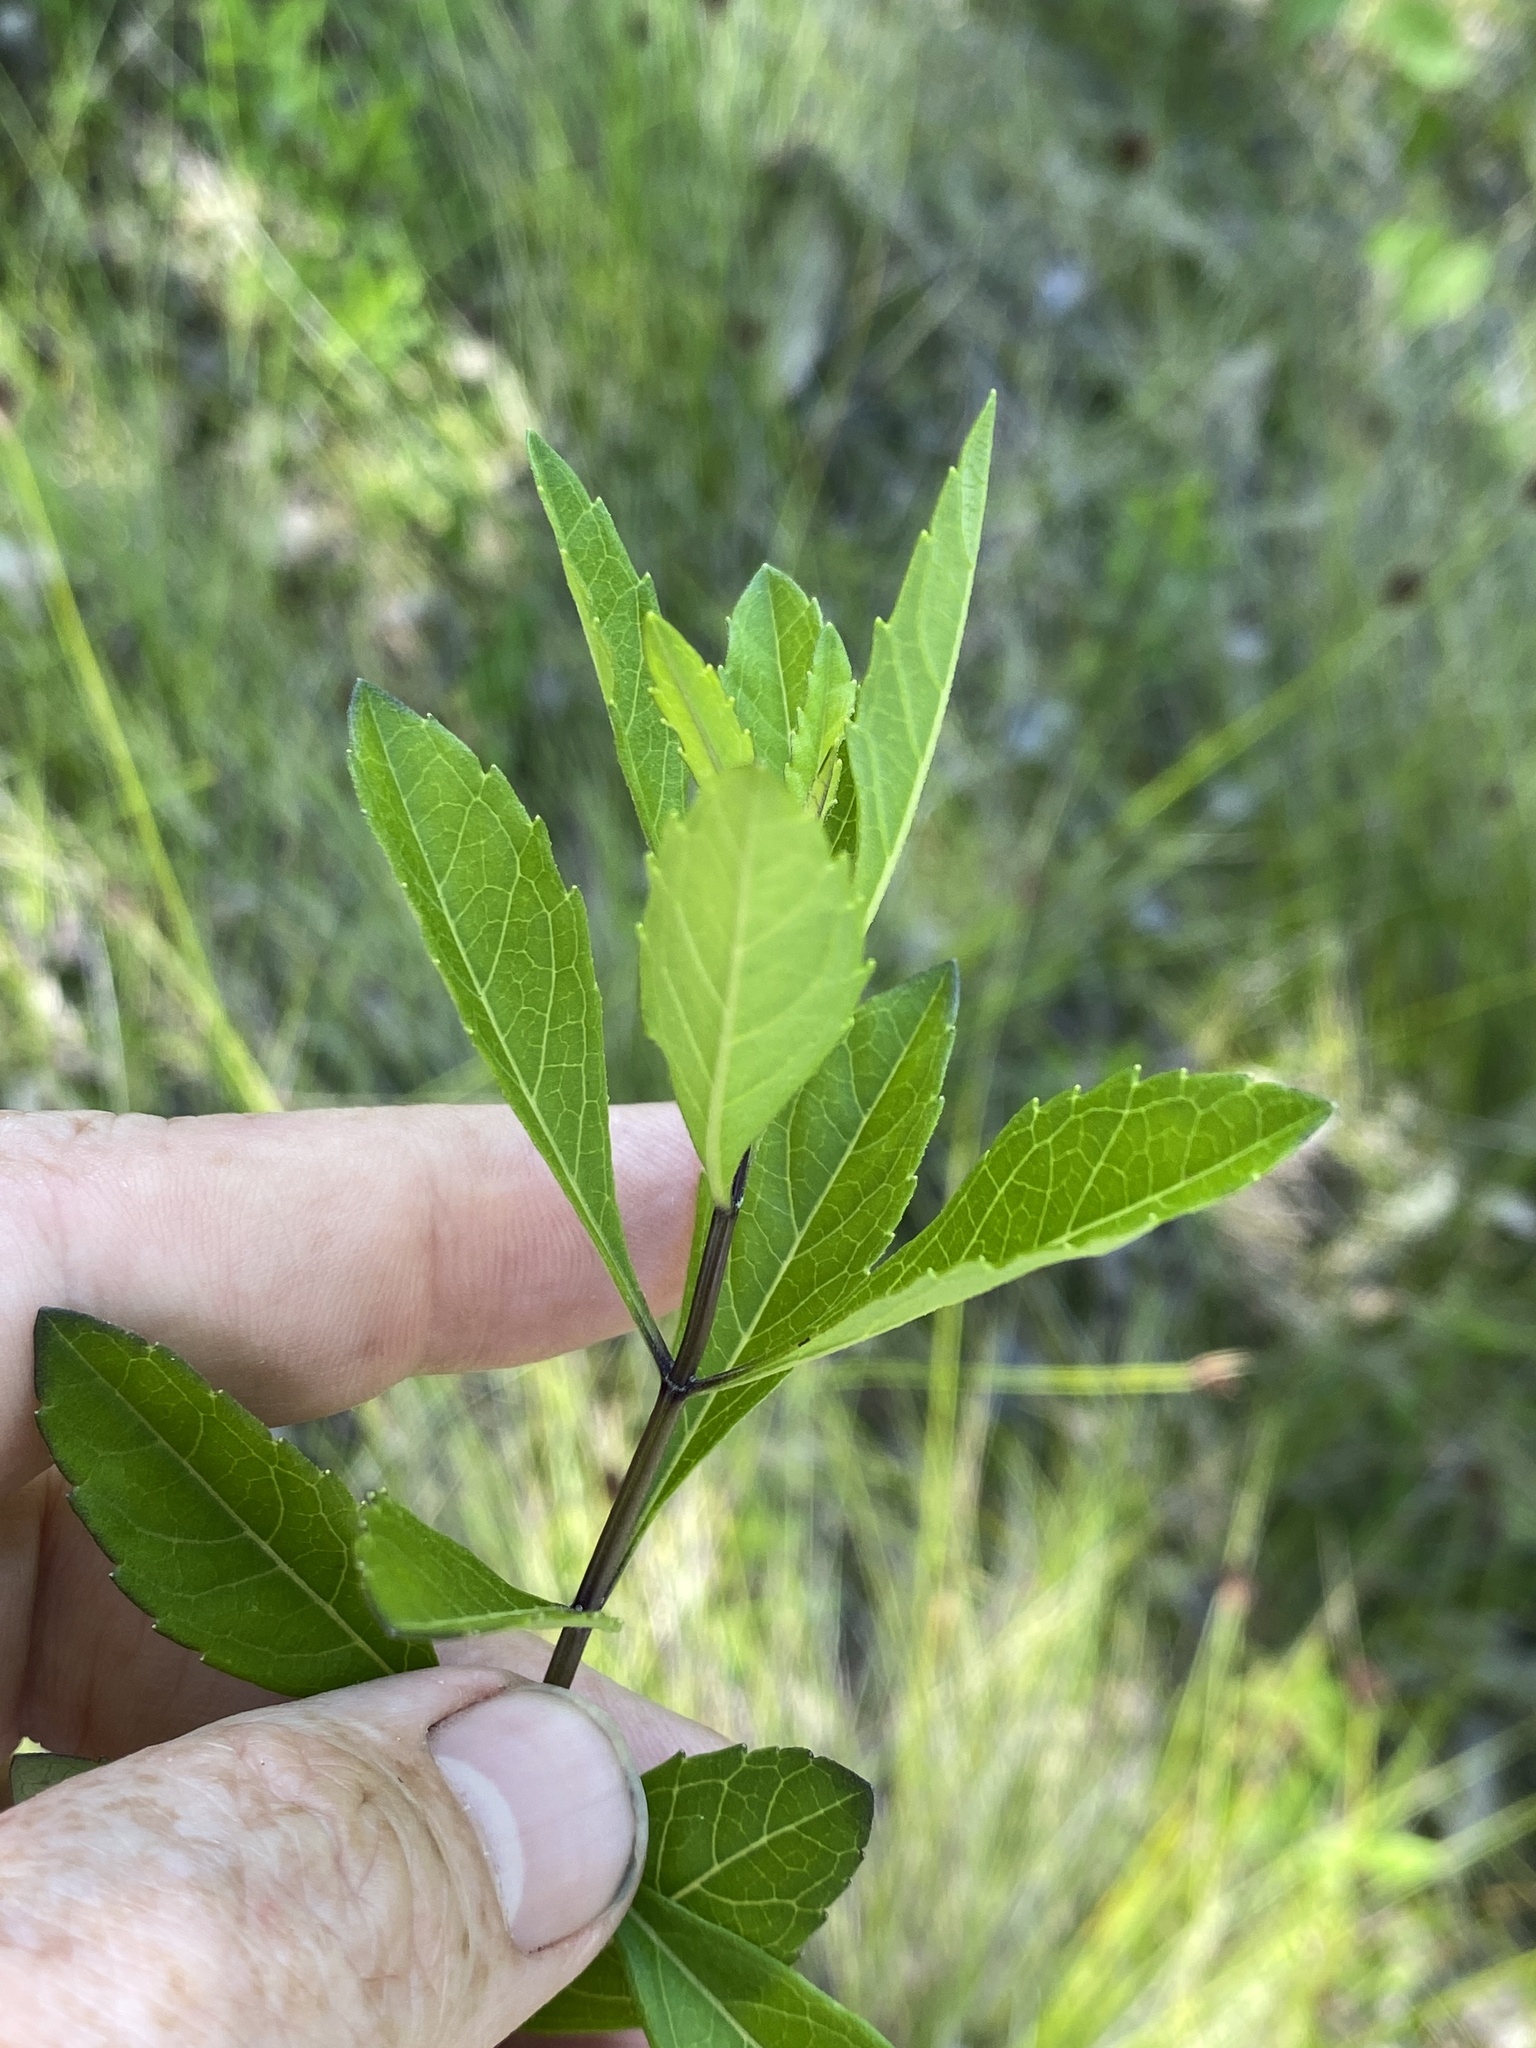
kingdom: Plantae
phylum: Tracheophyta
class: Magnoliopsida
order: Lamiales
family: Lamiaceae
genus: Salvia
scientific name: Salvia azurea
